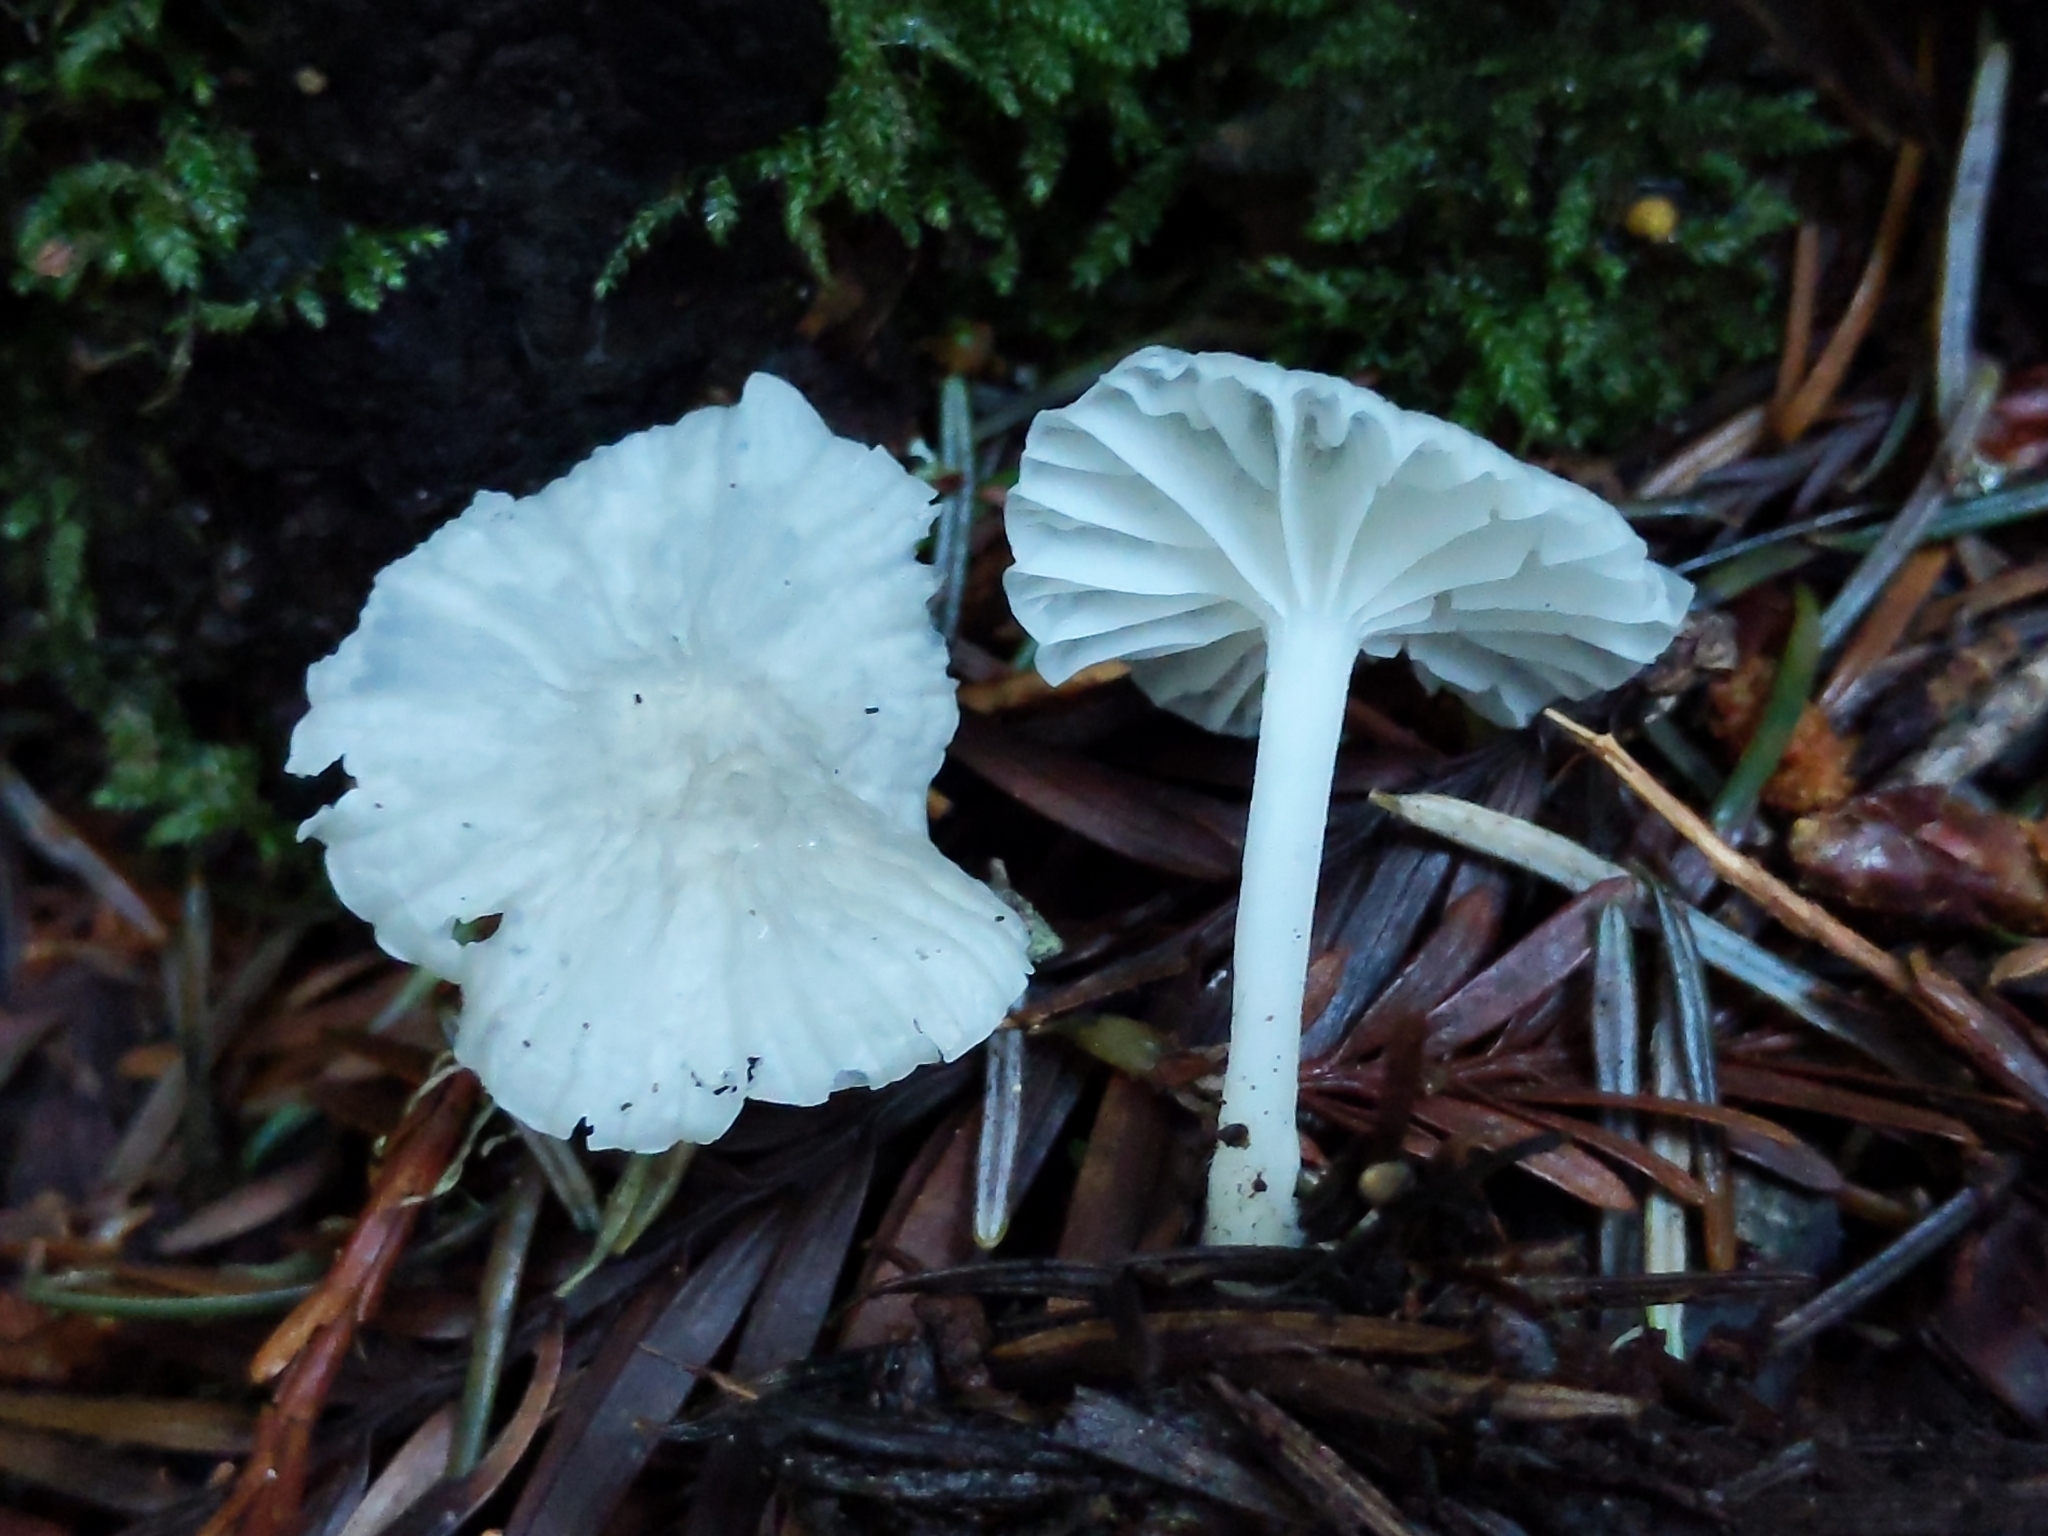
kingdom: Fungi
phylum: Basidiomycota
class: Agaricomycetes
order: Agaricales
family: Marasmiaceae
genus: Marasmius
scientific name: Marasmius calhouniae
